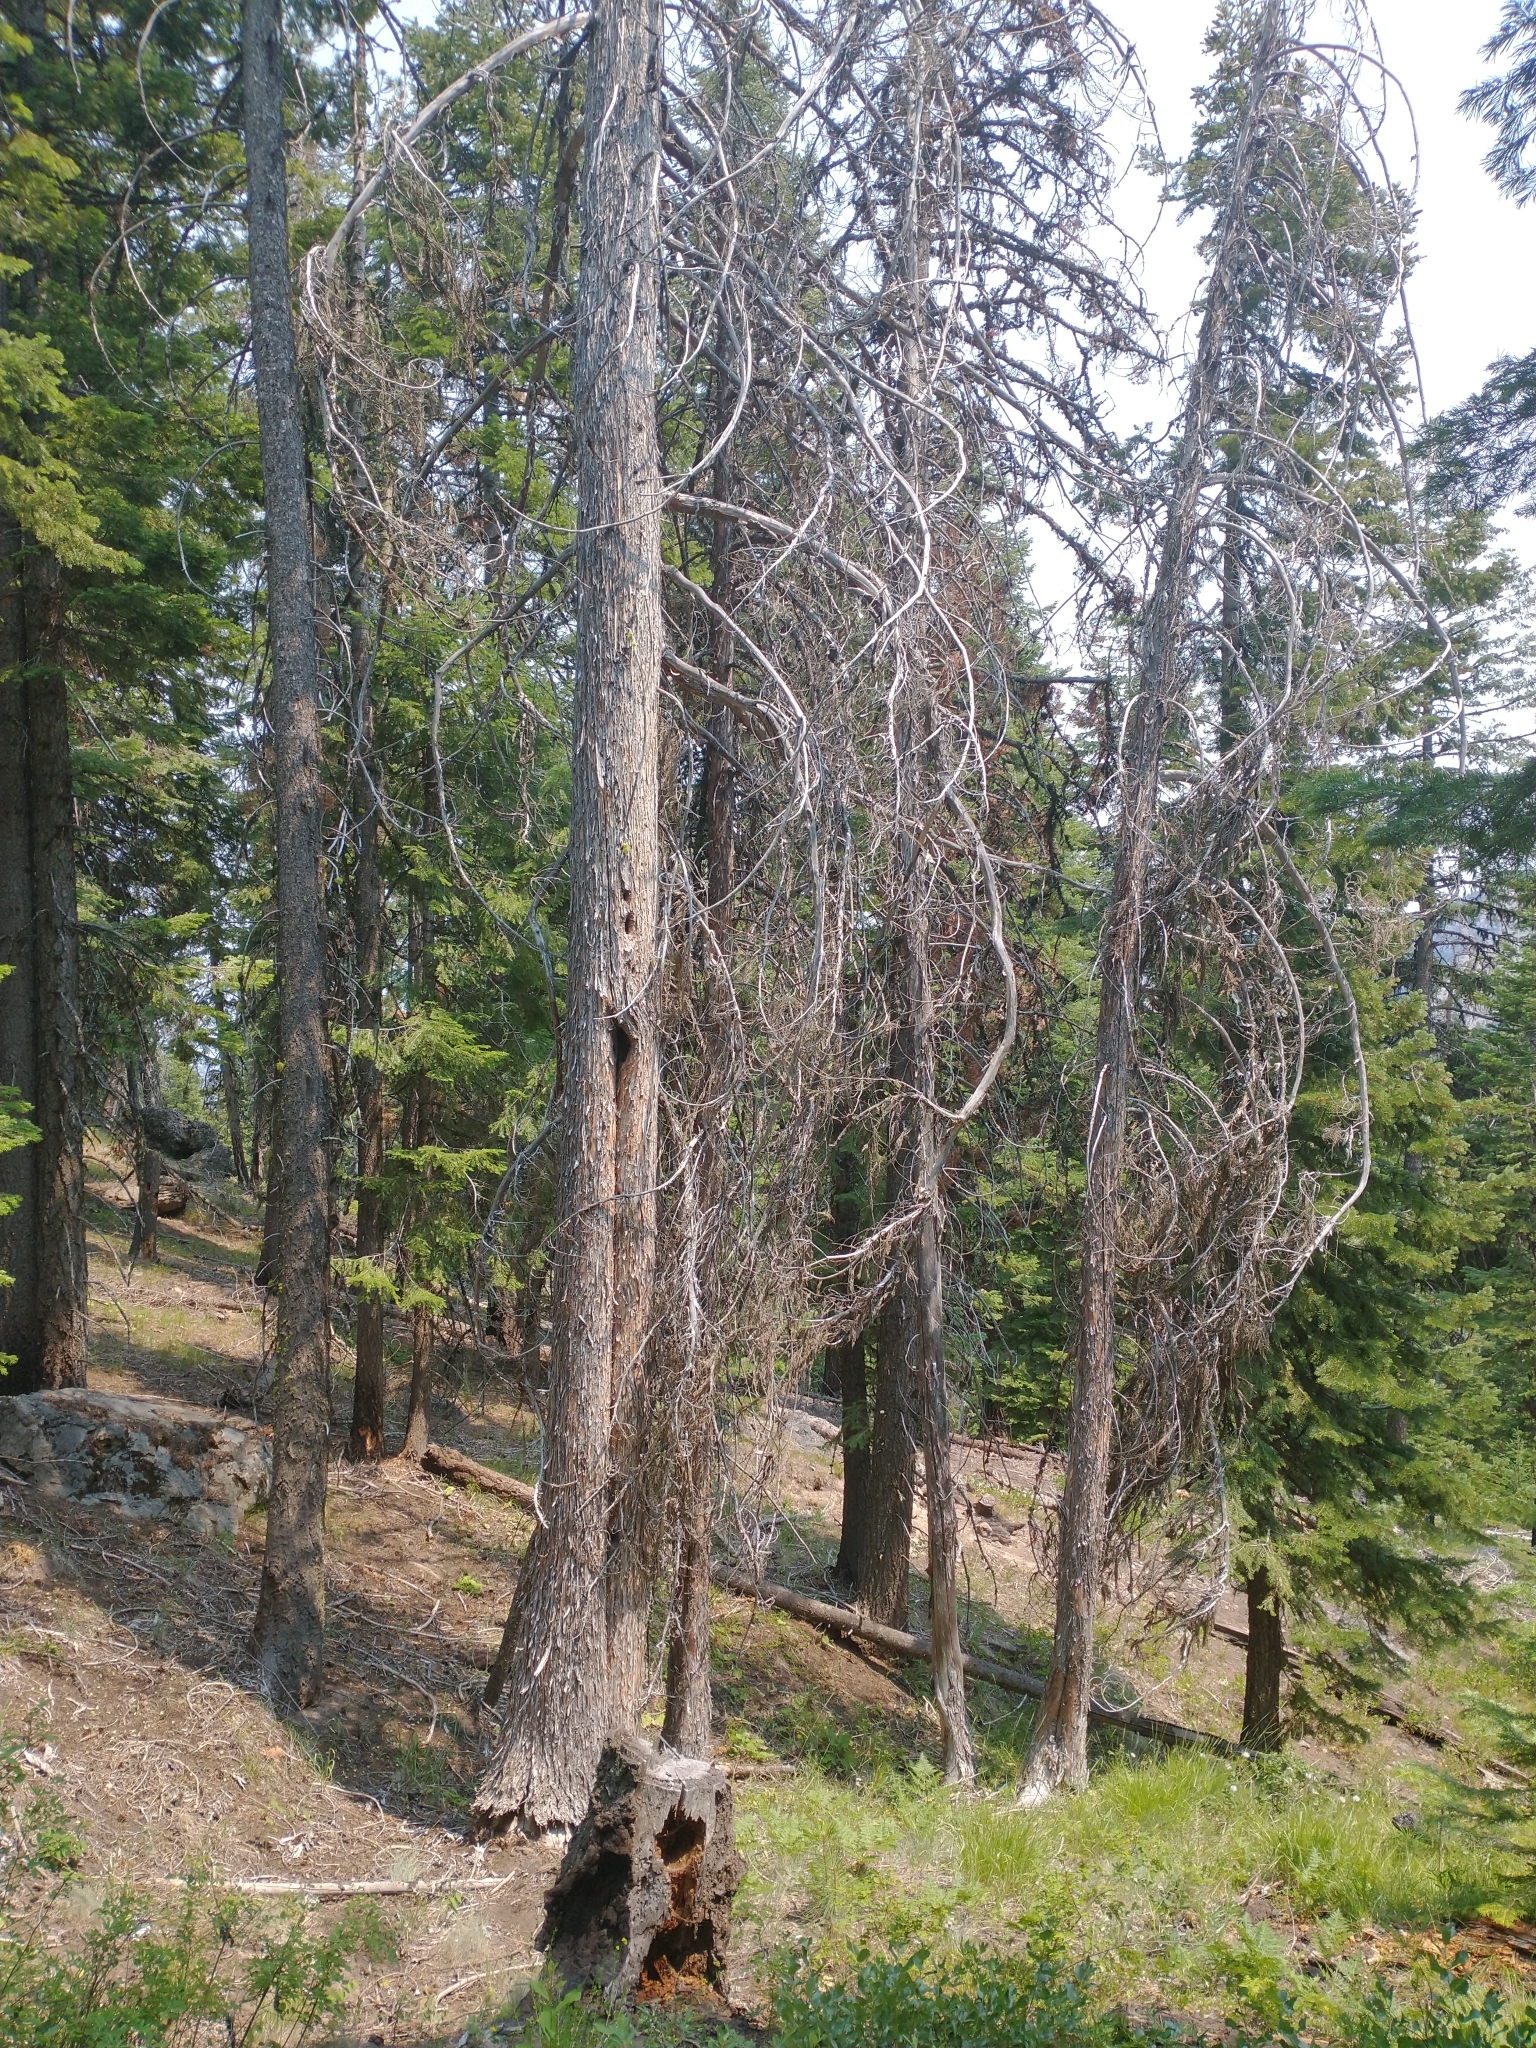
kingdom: Plantae
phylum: Tracheophyta
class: Pinopsida
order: Pinales
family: Cupressaceae
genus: Xanthocyparis
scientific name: Xanthocyparis nootkatensis
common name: Nootka cypress
